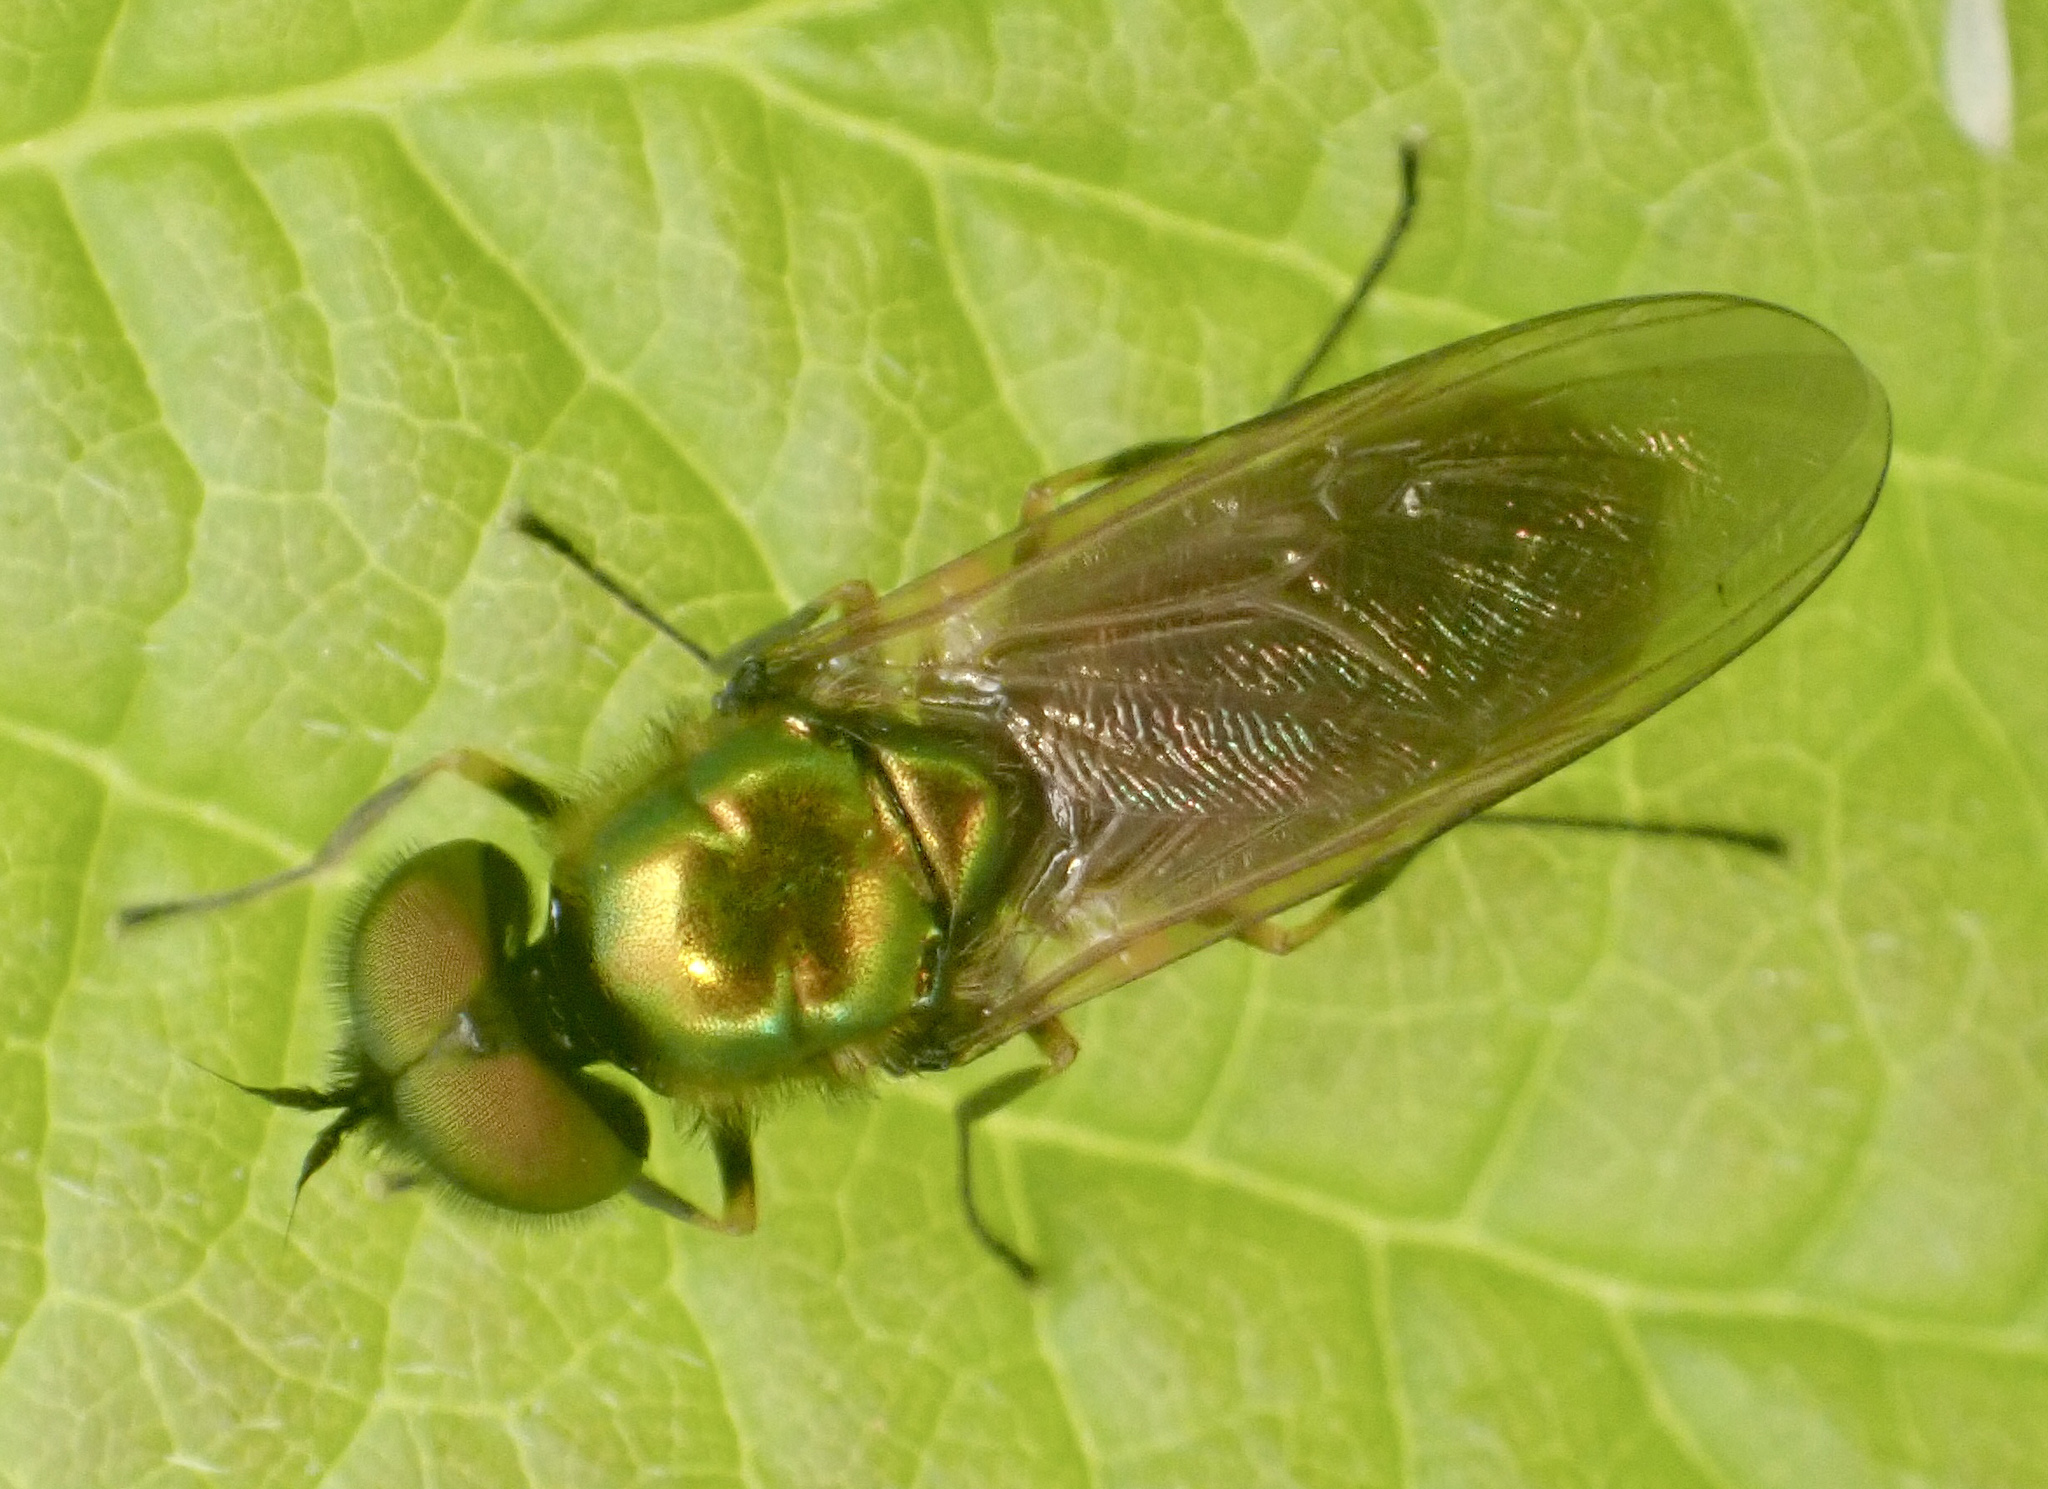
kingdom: Animalia
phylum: Arthropoda
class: Insecta
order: Diptera
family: Stratiomyidae
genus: Chloromyia
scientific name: Chloromyia formosa
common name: Soldier fly
